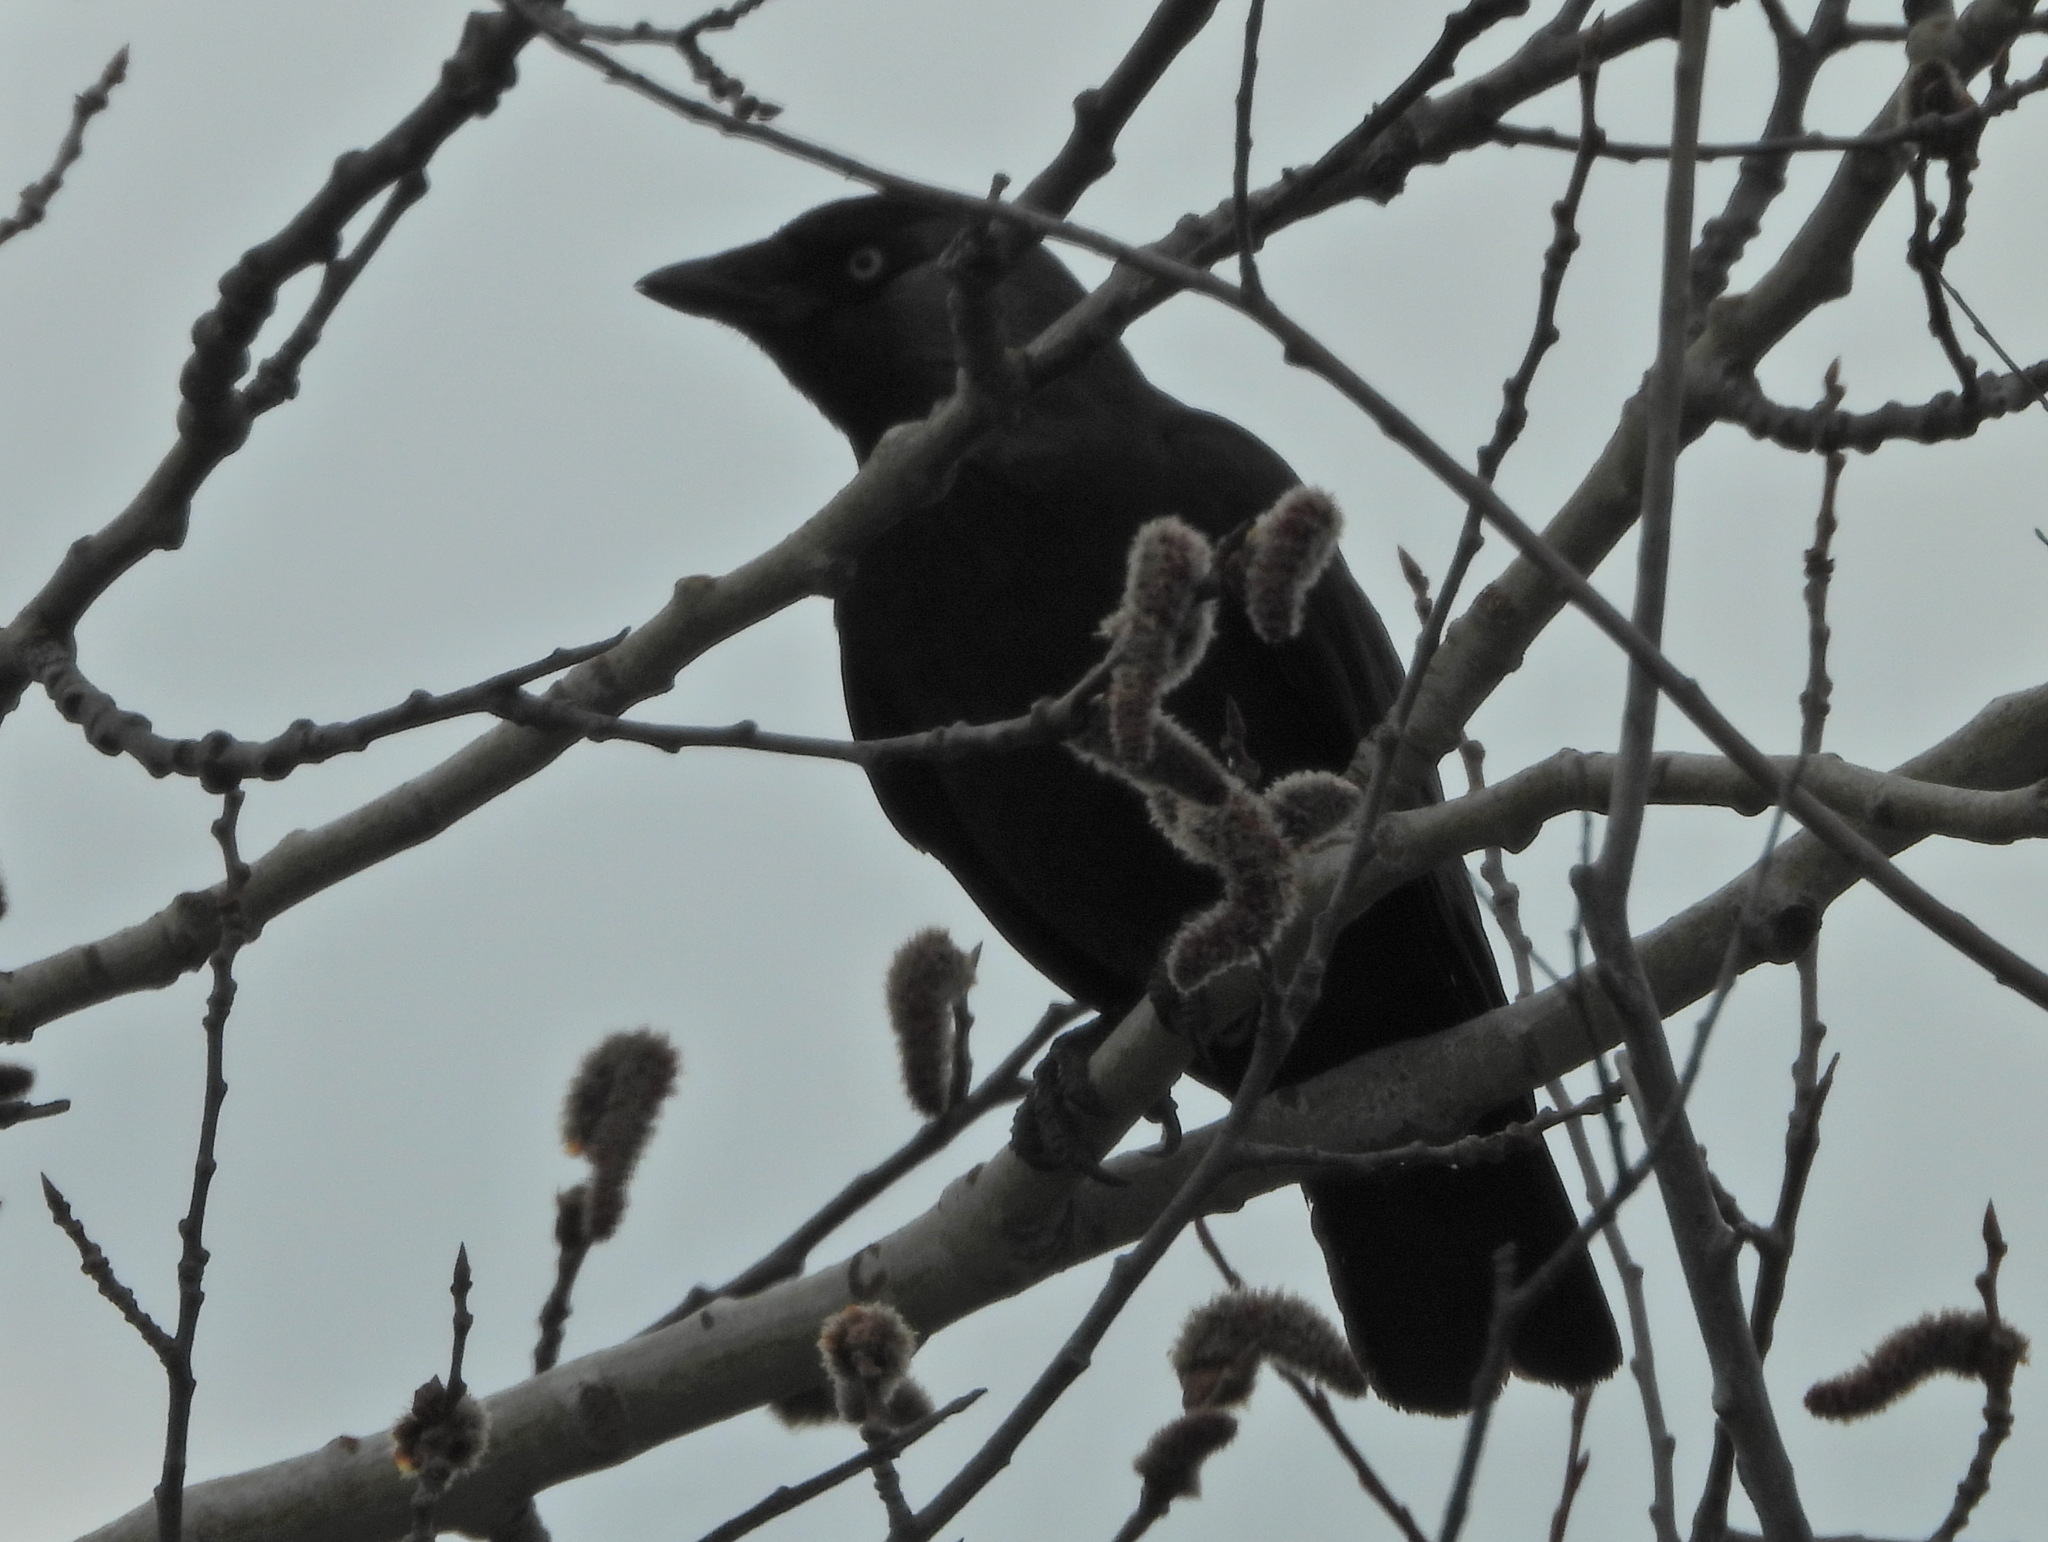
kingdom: Animalia
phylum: Chordata
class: Aves
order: Passeriformes
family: Corvidae
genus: Coloeus
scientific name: Coloeus monedula
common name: Western jackdaw
